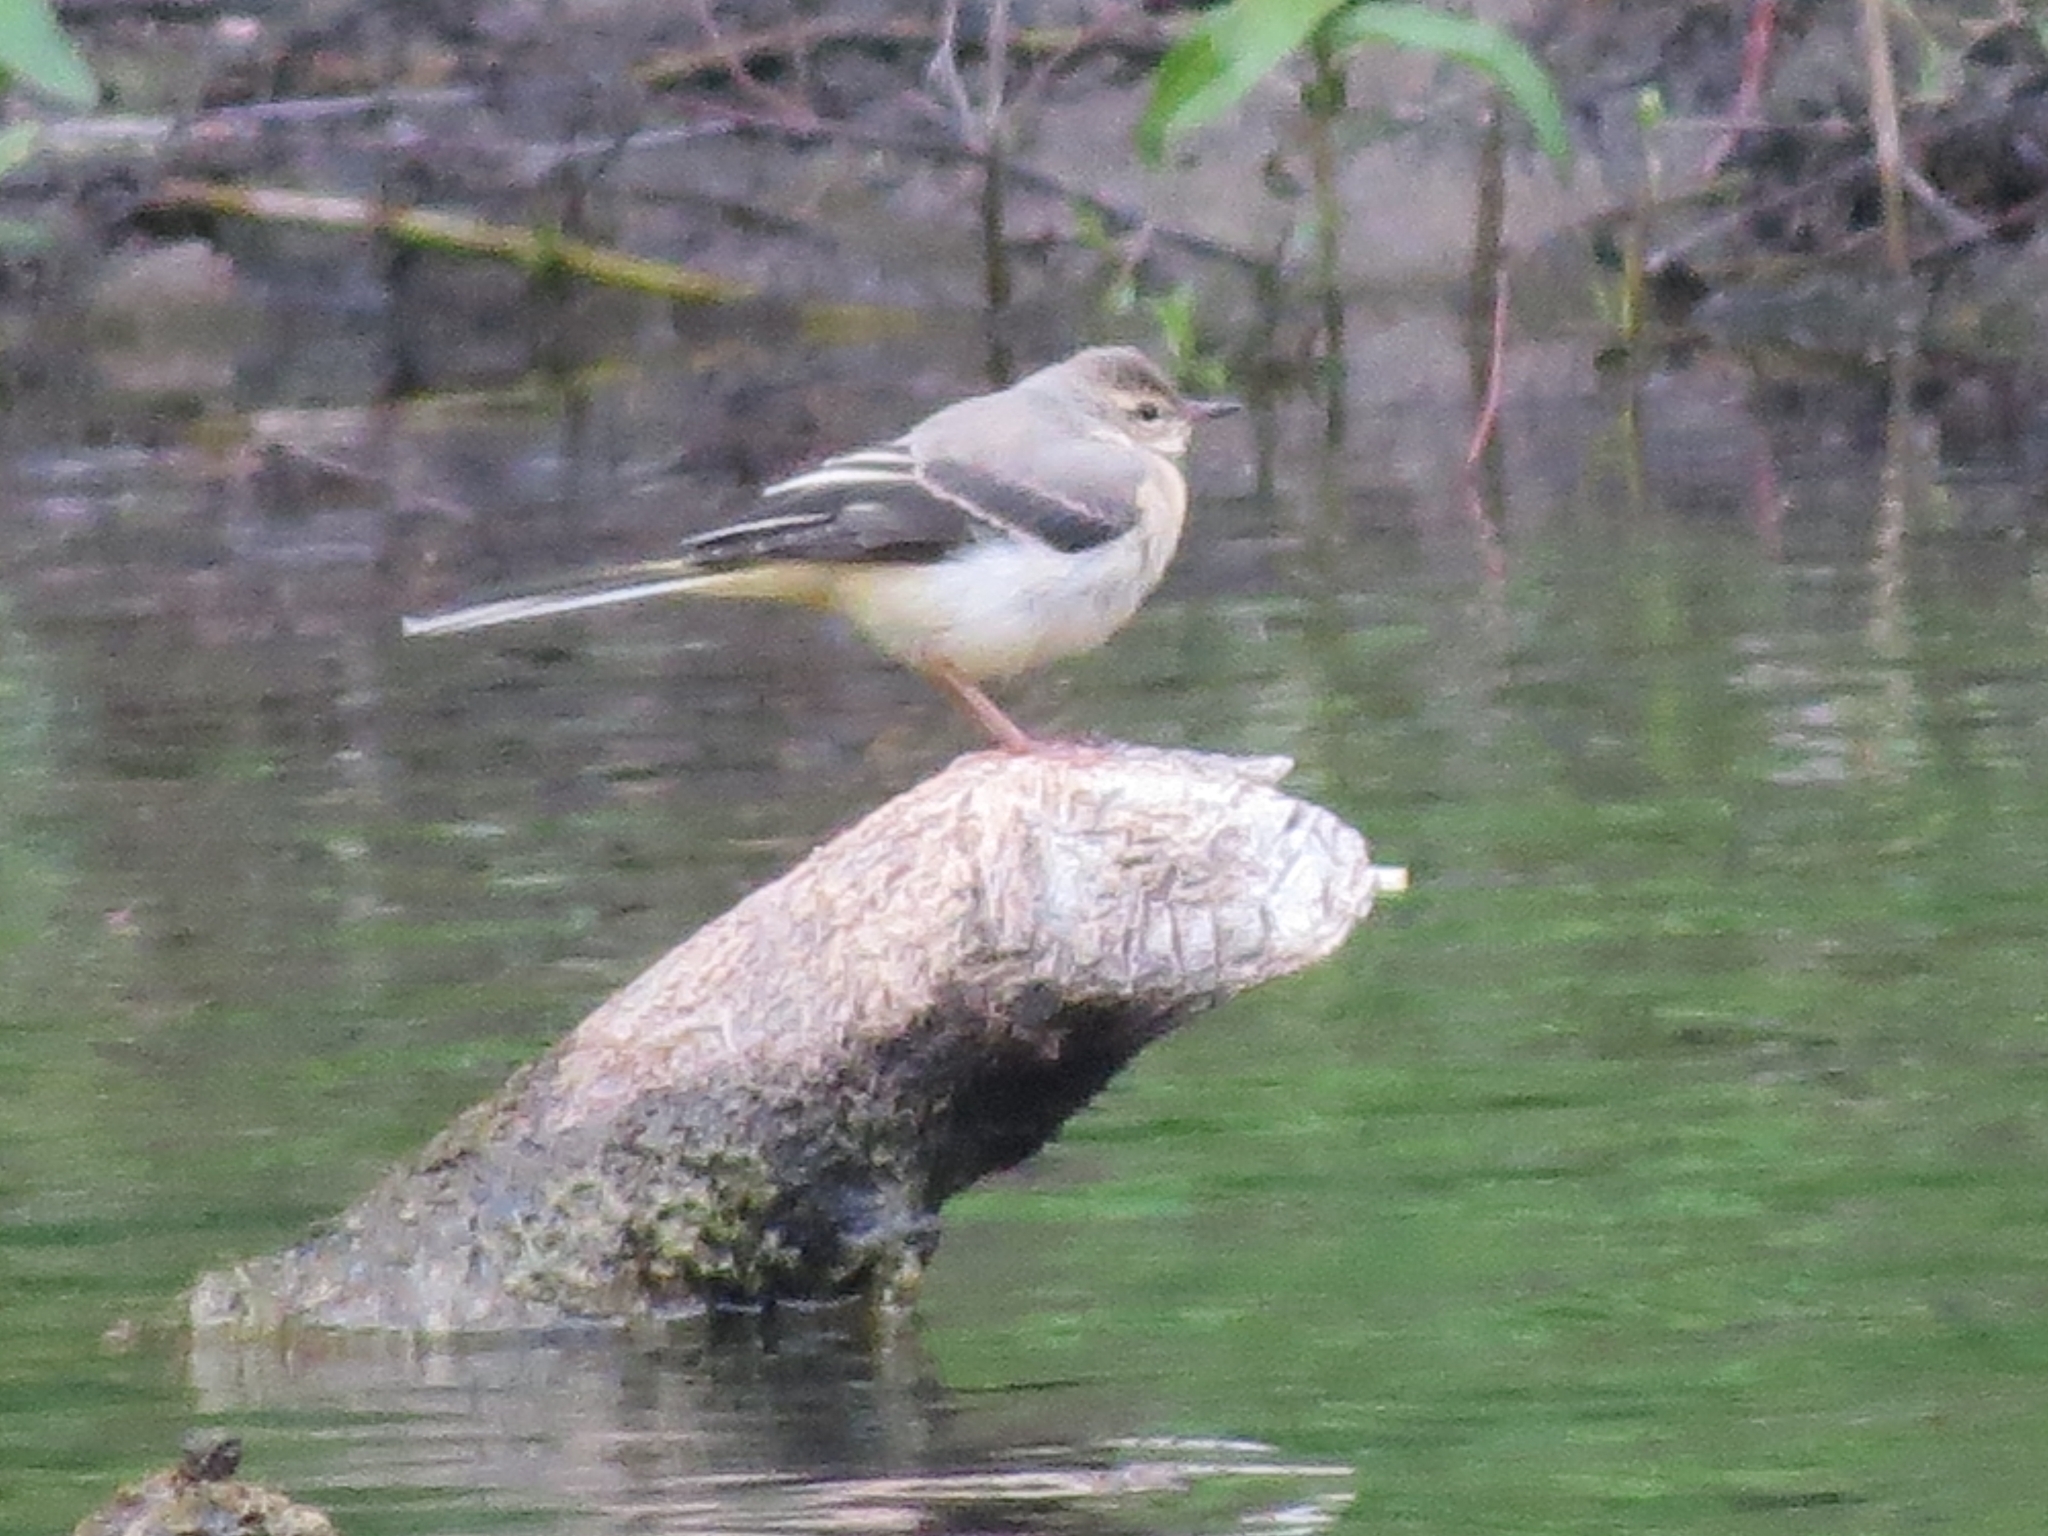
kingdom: Animalia
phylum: Chordata
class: Aves
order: Passeriformes
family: Motacillidae
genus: Motacilla
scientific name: Motacilla cinerea
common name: Grey wagtail
